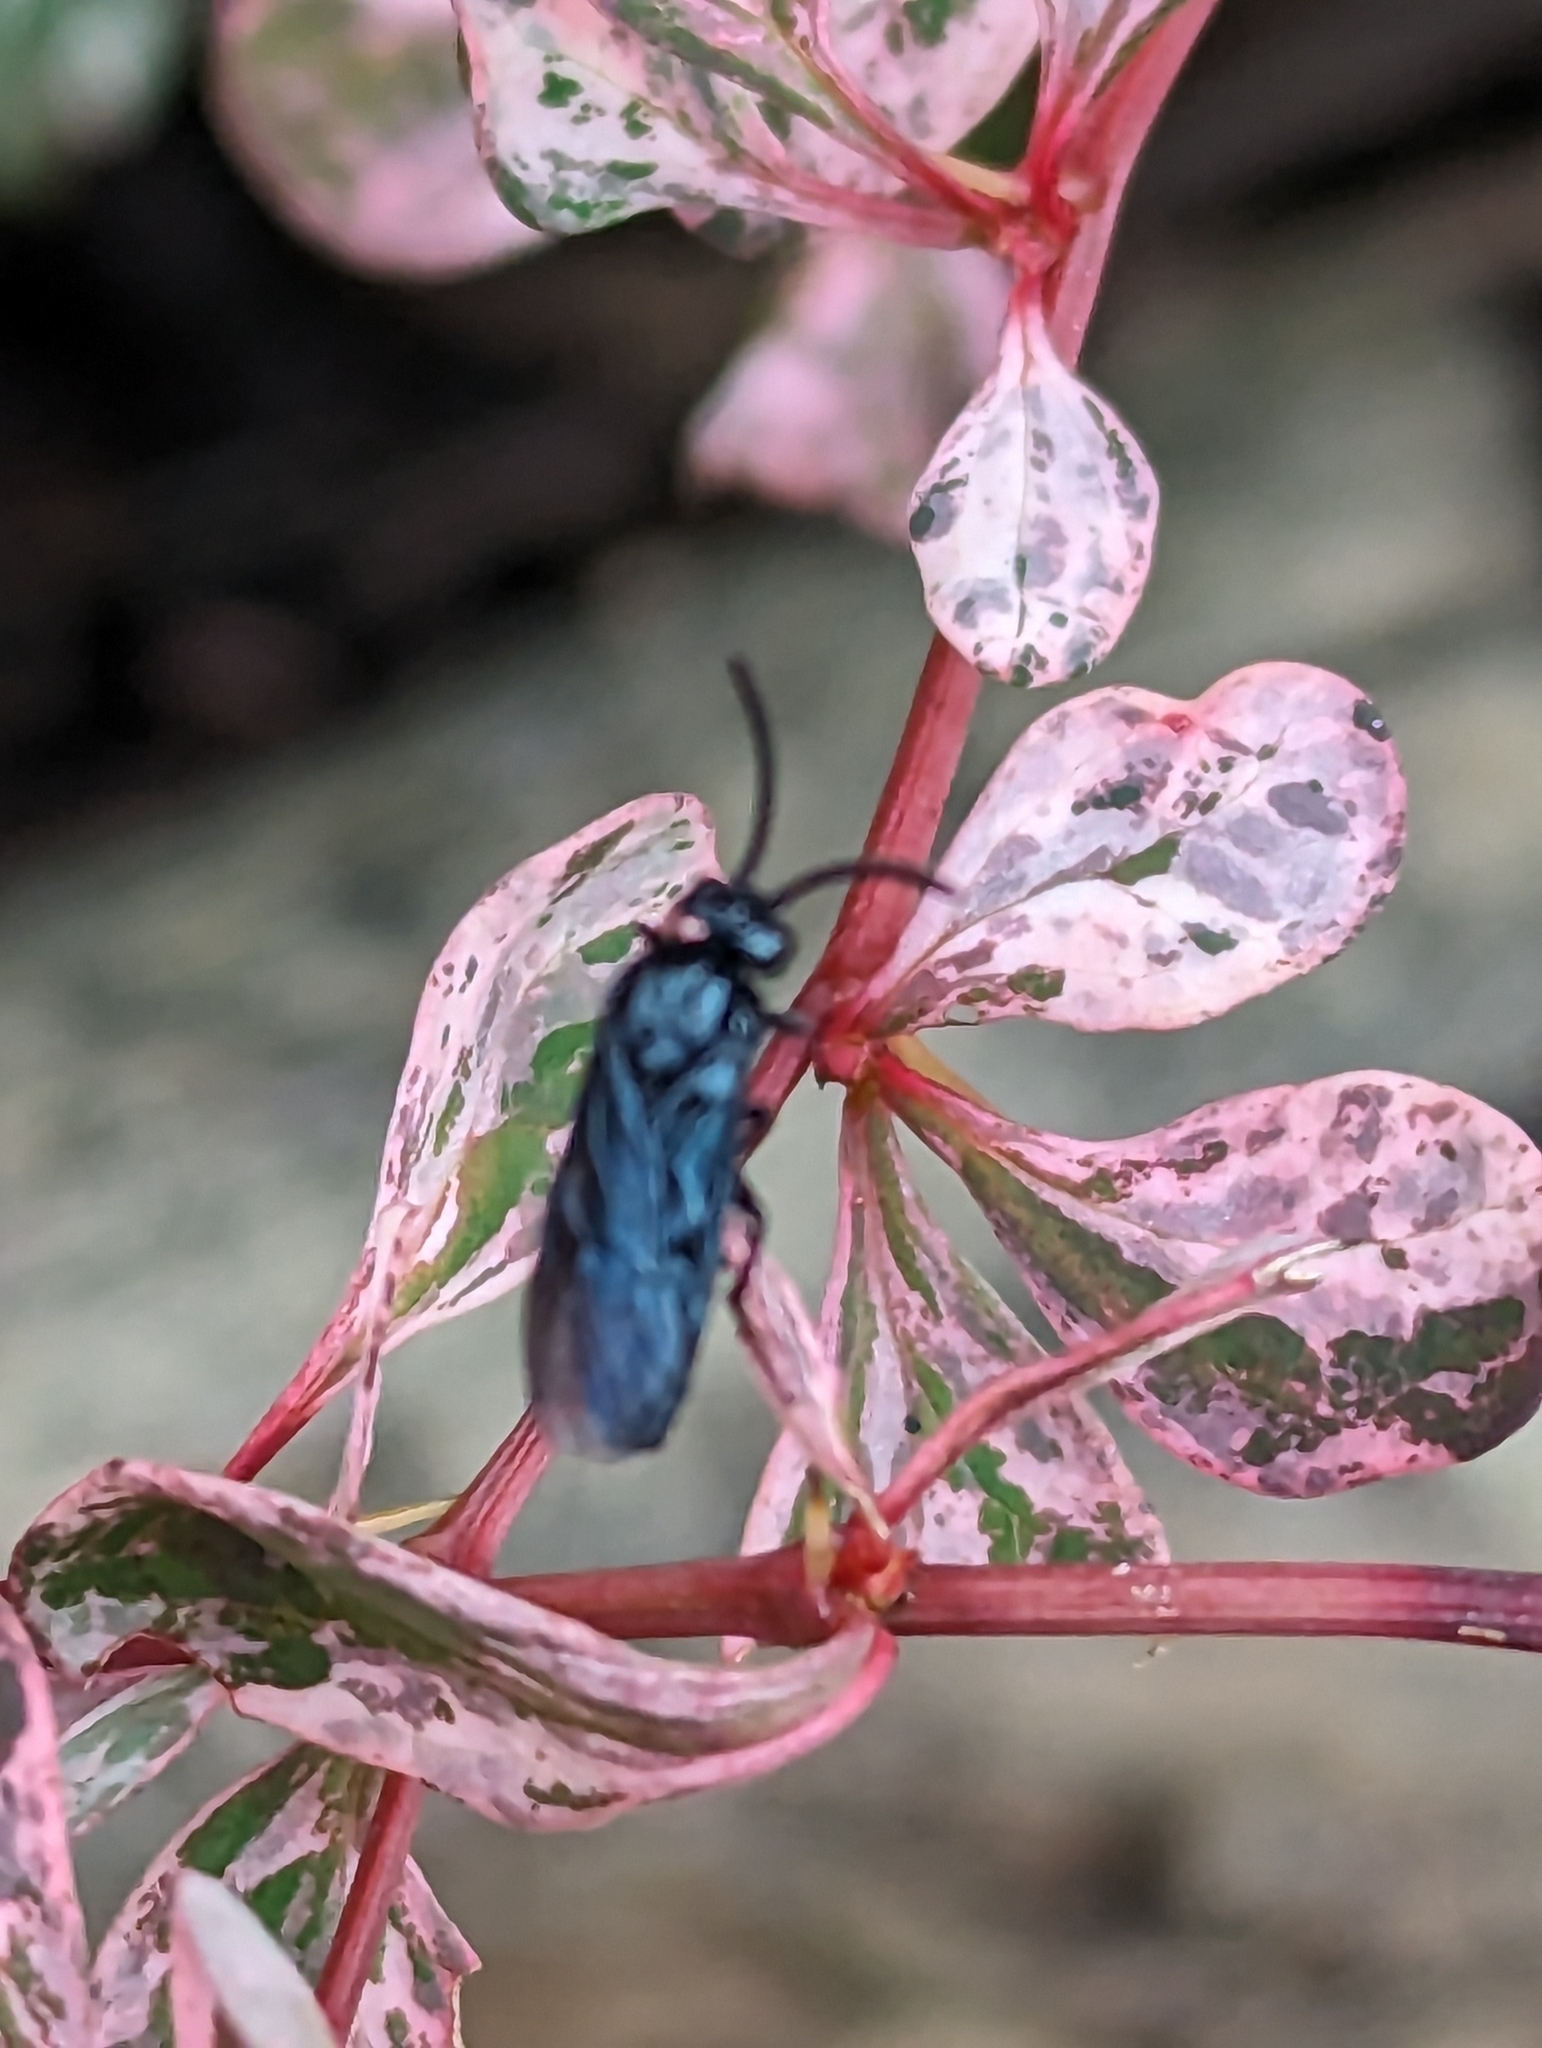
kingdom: Animalia
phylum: Arthropoda
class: Insecta
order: Hymenoptera
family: Argidae
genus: Arge
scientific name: Arge berberidis
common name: Berberis sawfly
